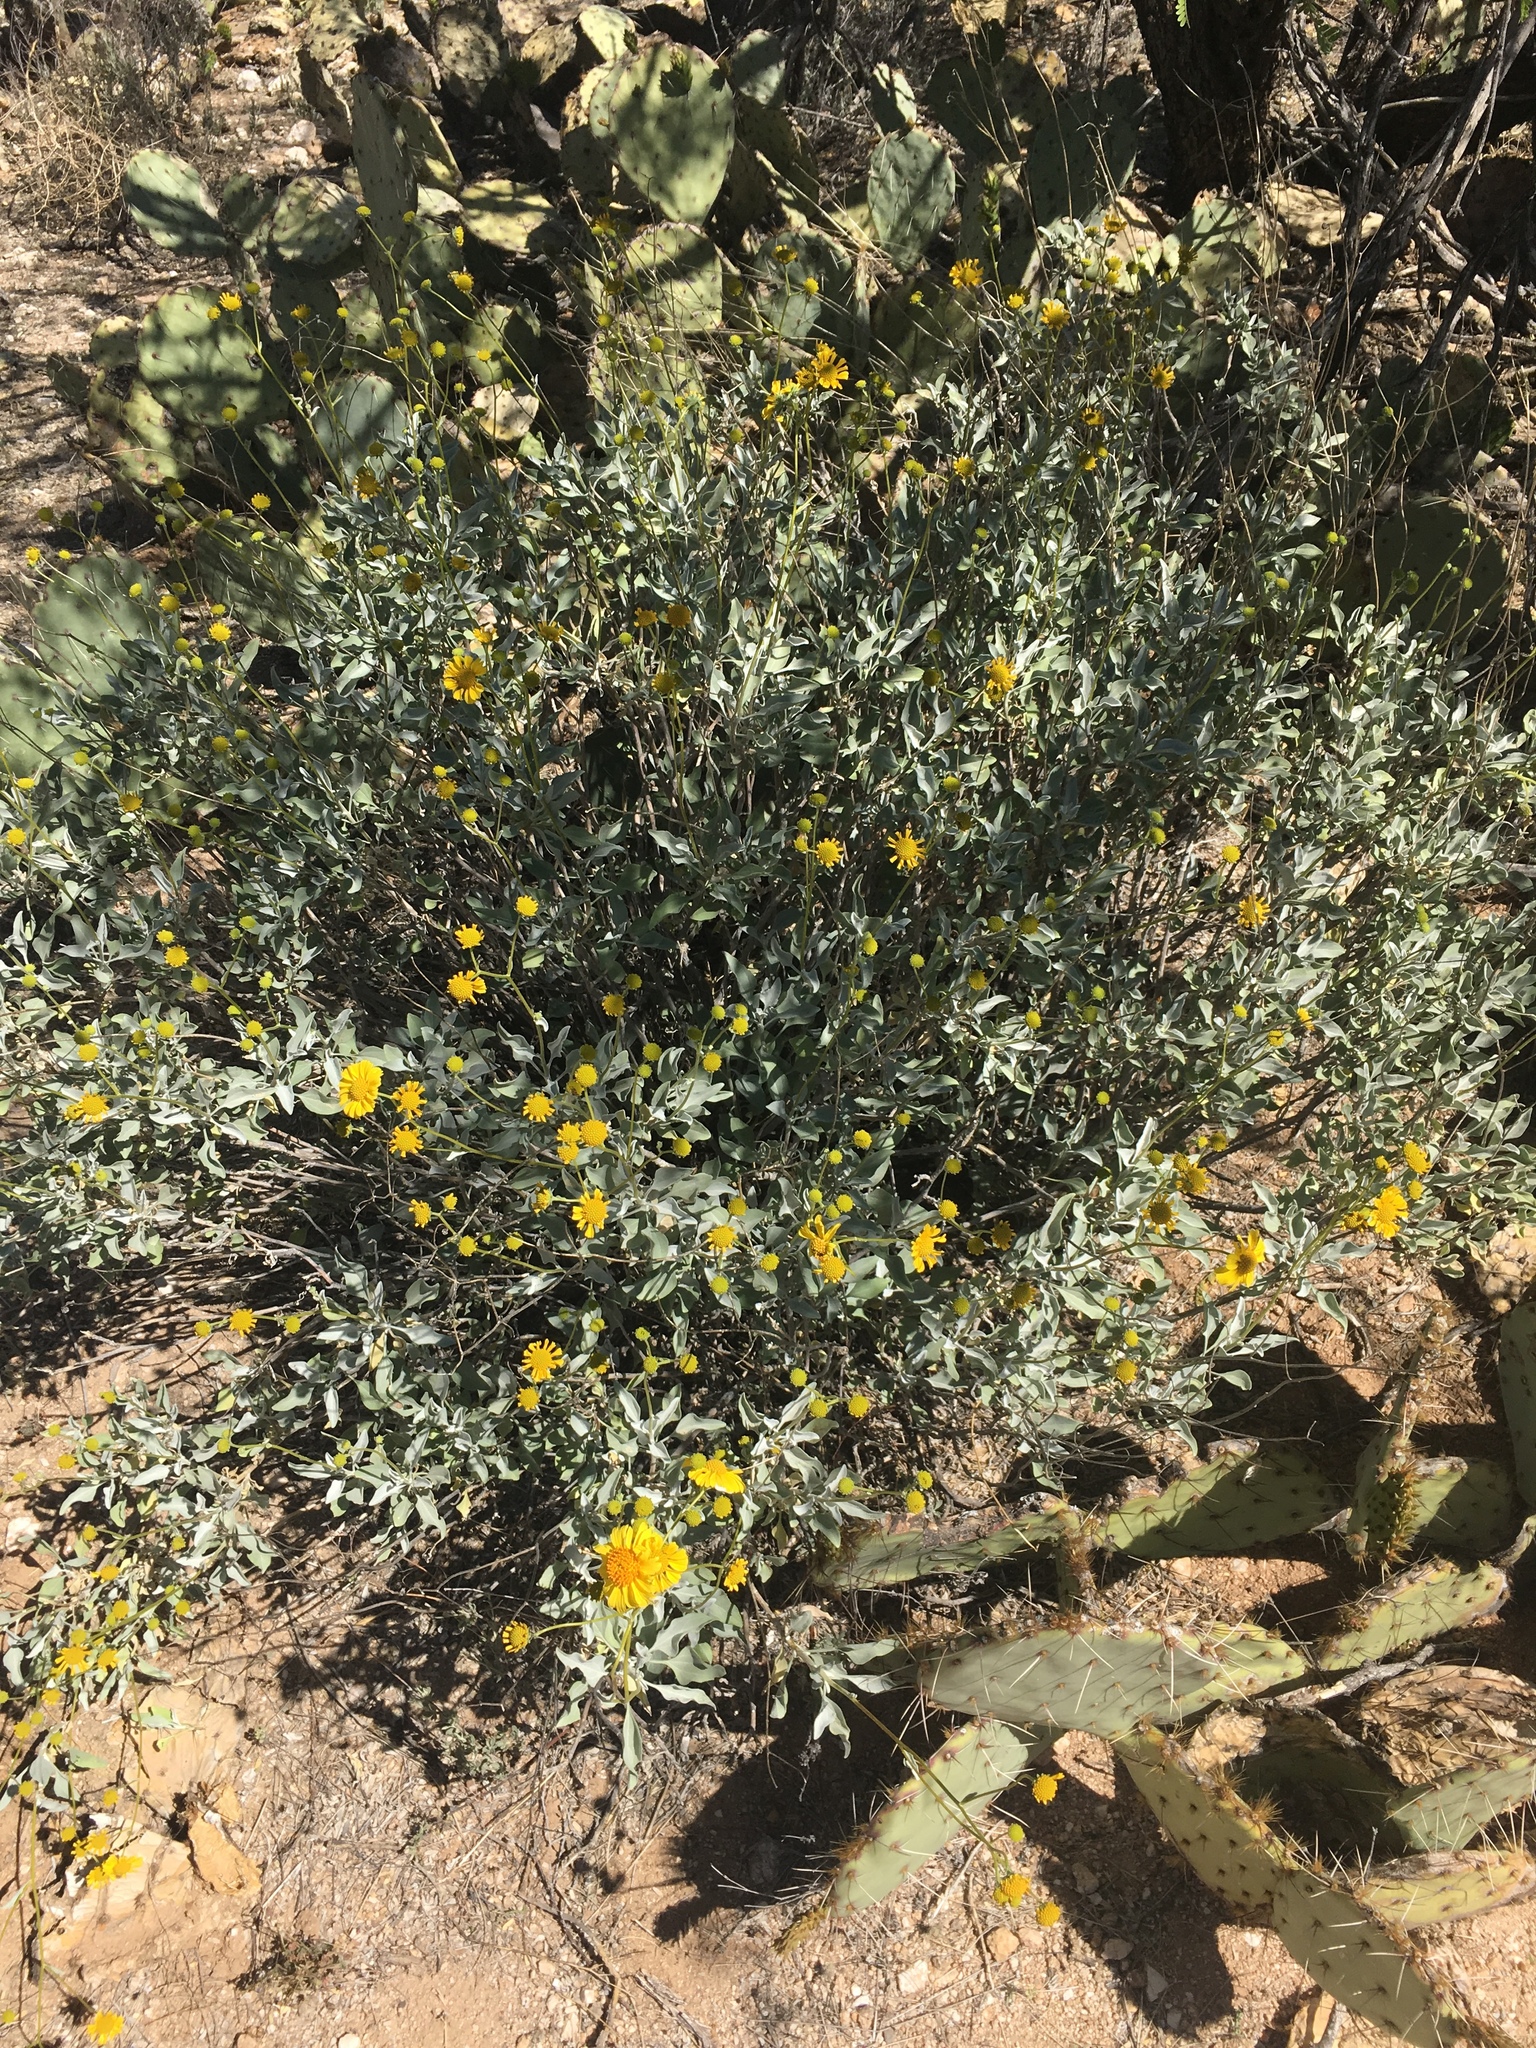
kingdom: Plantae
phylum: Tracheophyta
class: Magnoliopsida
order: Asterales
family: Asteraceae
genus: Encelia
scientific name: Encelia farinosa
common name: Brittlebush
